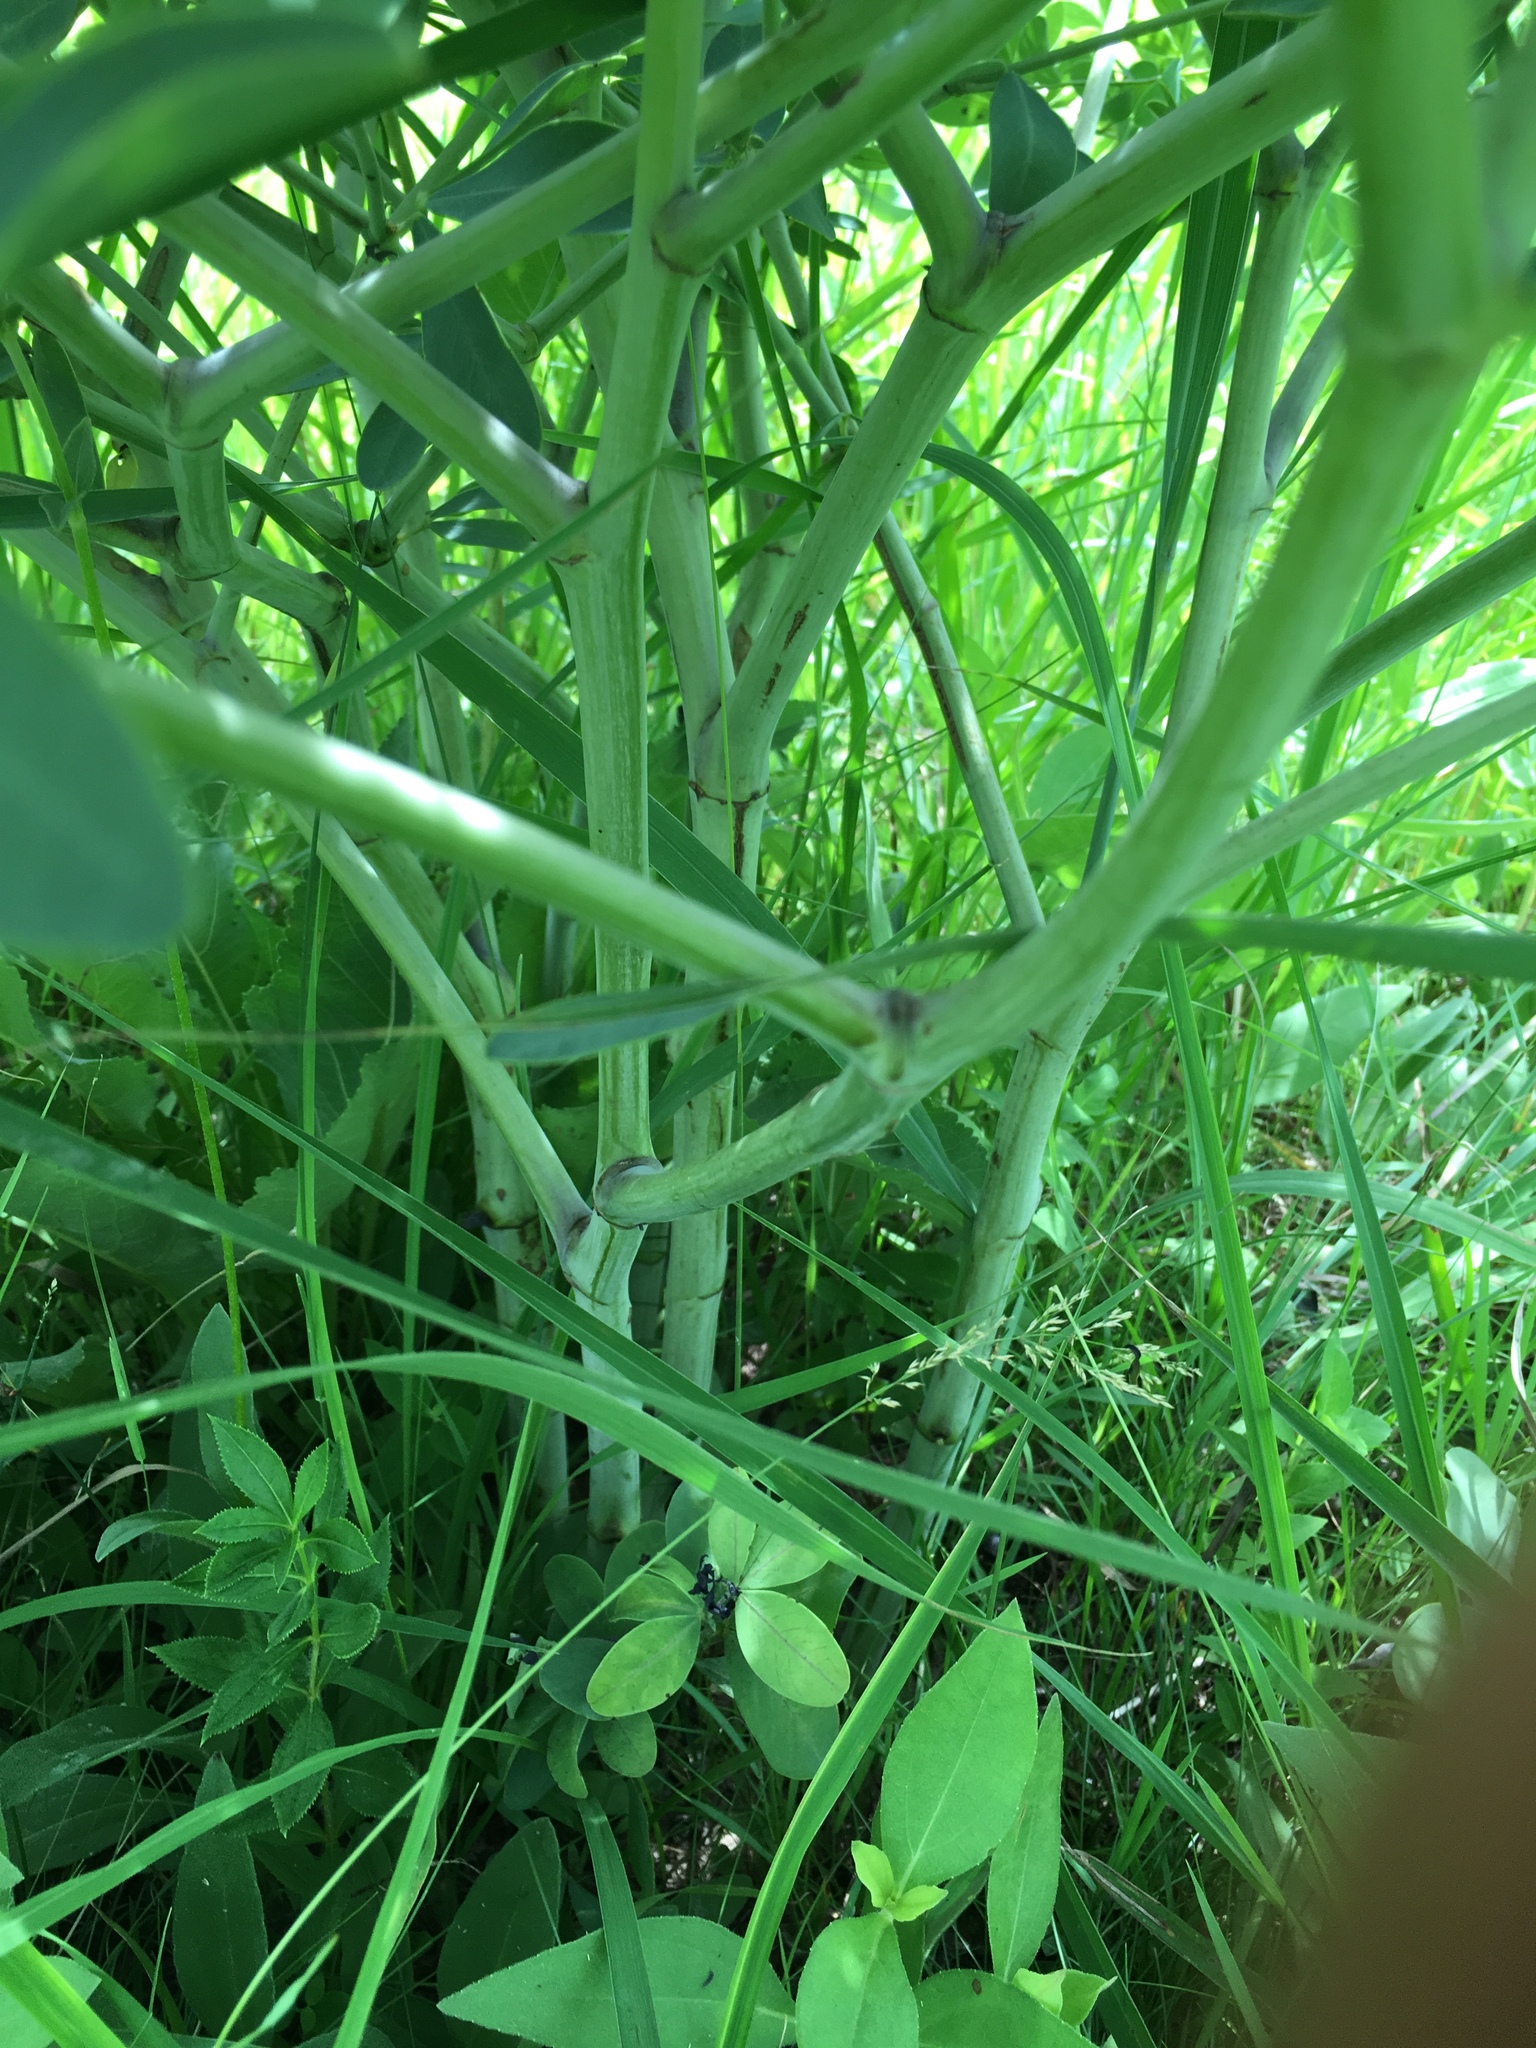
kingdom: Plantae
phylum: Tracheophyta
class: Magnoliopsida
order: Fabales
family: Fabaceae
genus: Baptisia
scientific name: Baptisia alba
